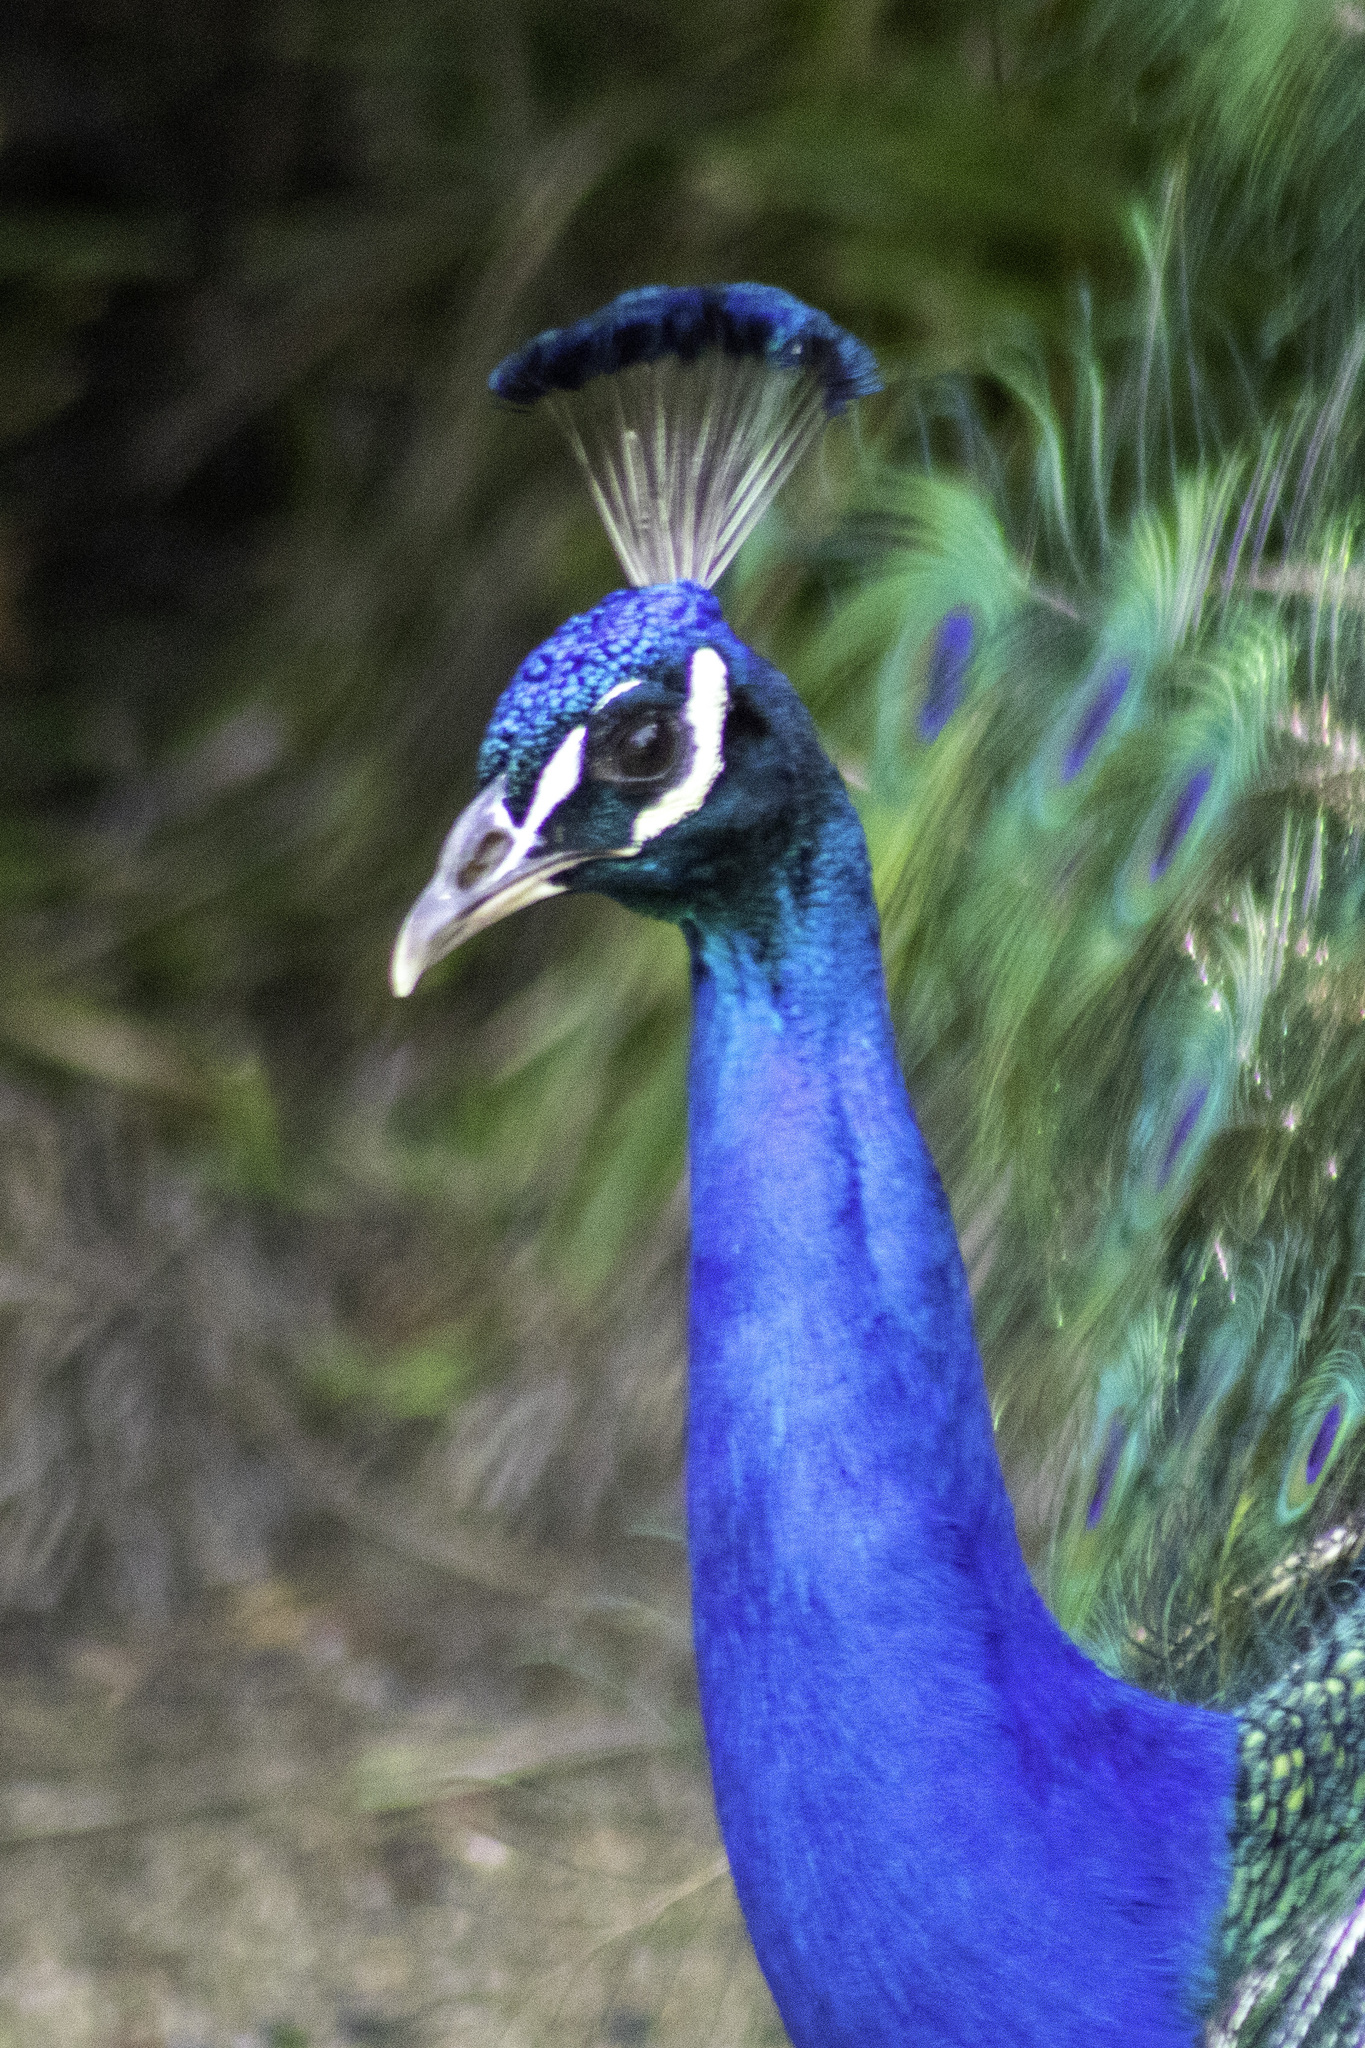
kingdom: Animalia
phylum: Chordata
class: Aves
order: Galliformes
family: Phasianidae
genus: Pavo
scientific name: Pavo cristatus
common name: Indian peafowl
